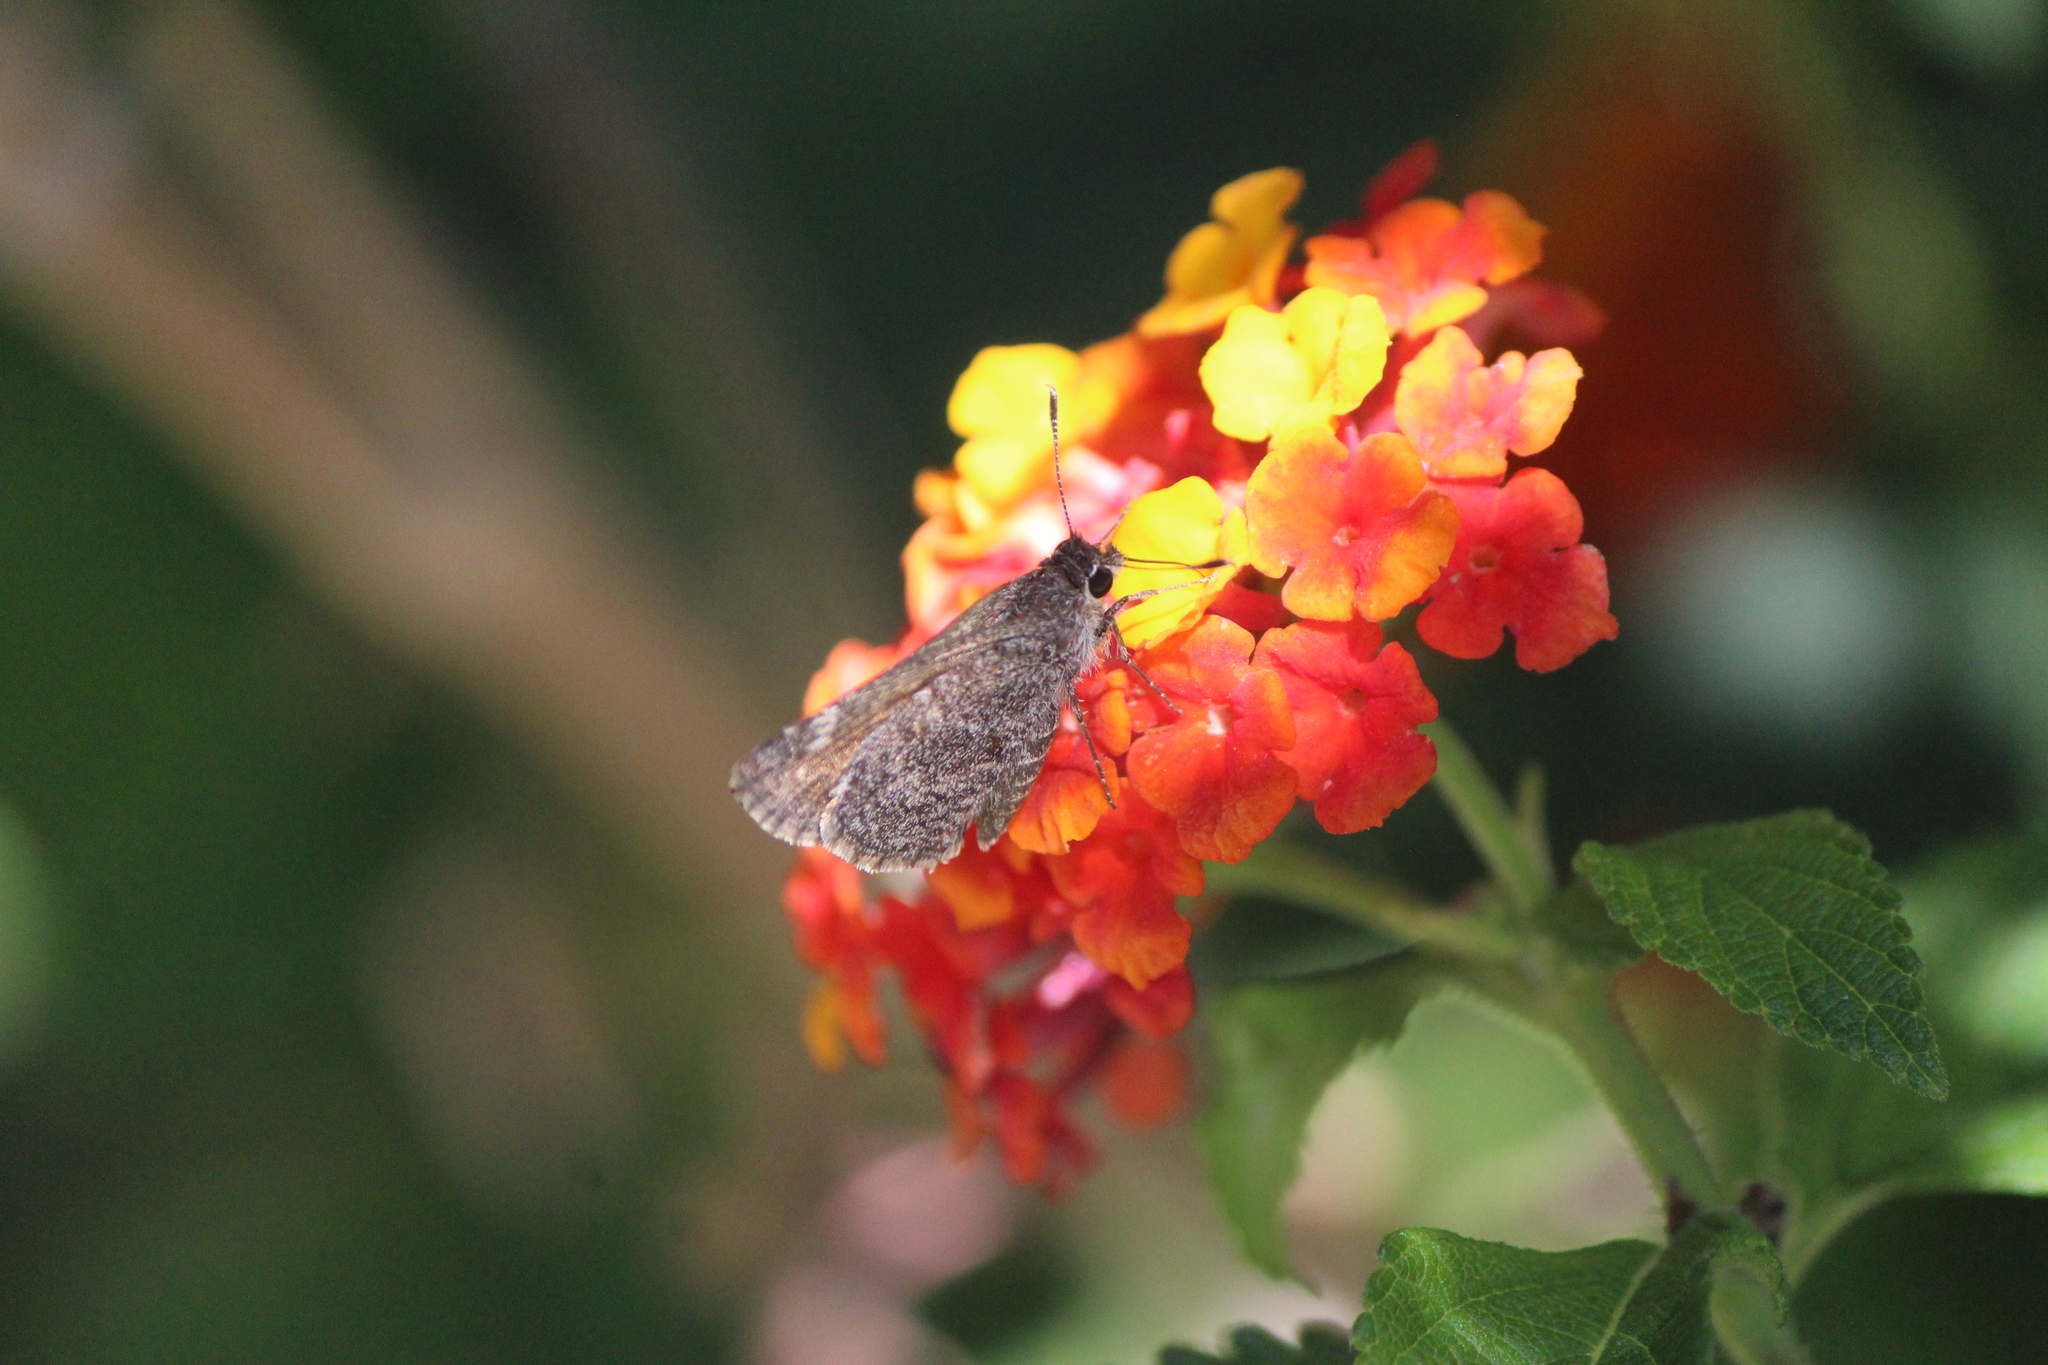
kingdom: Animalia
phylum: Arthropoda
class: Insecta
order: Lepidoptera
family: Hesperiidae
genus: Mastor
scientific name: Mastor fluonia
